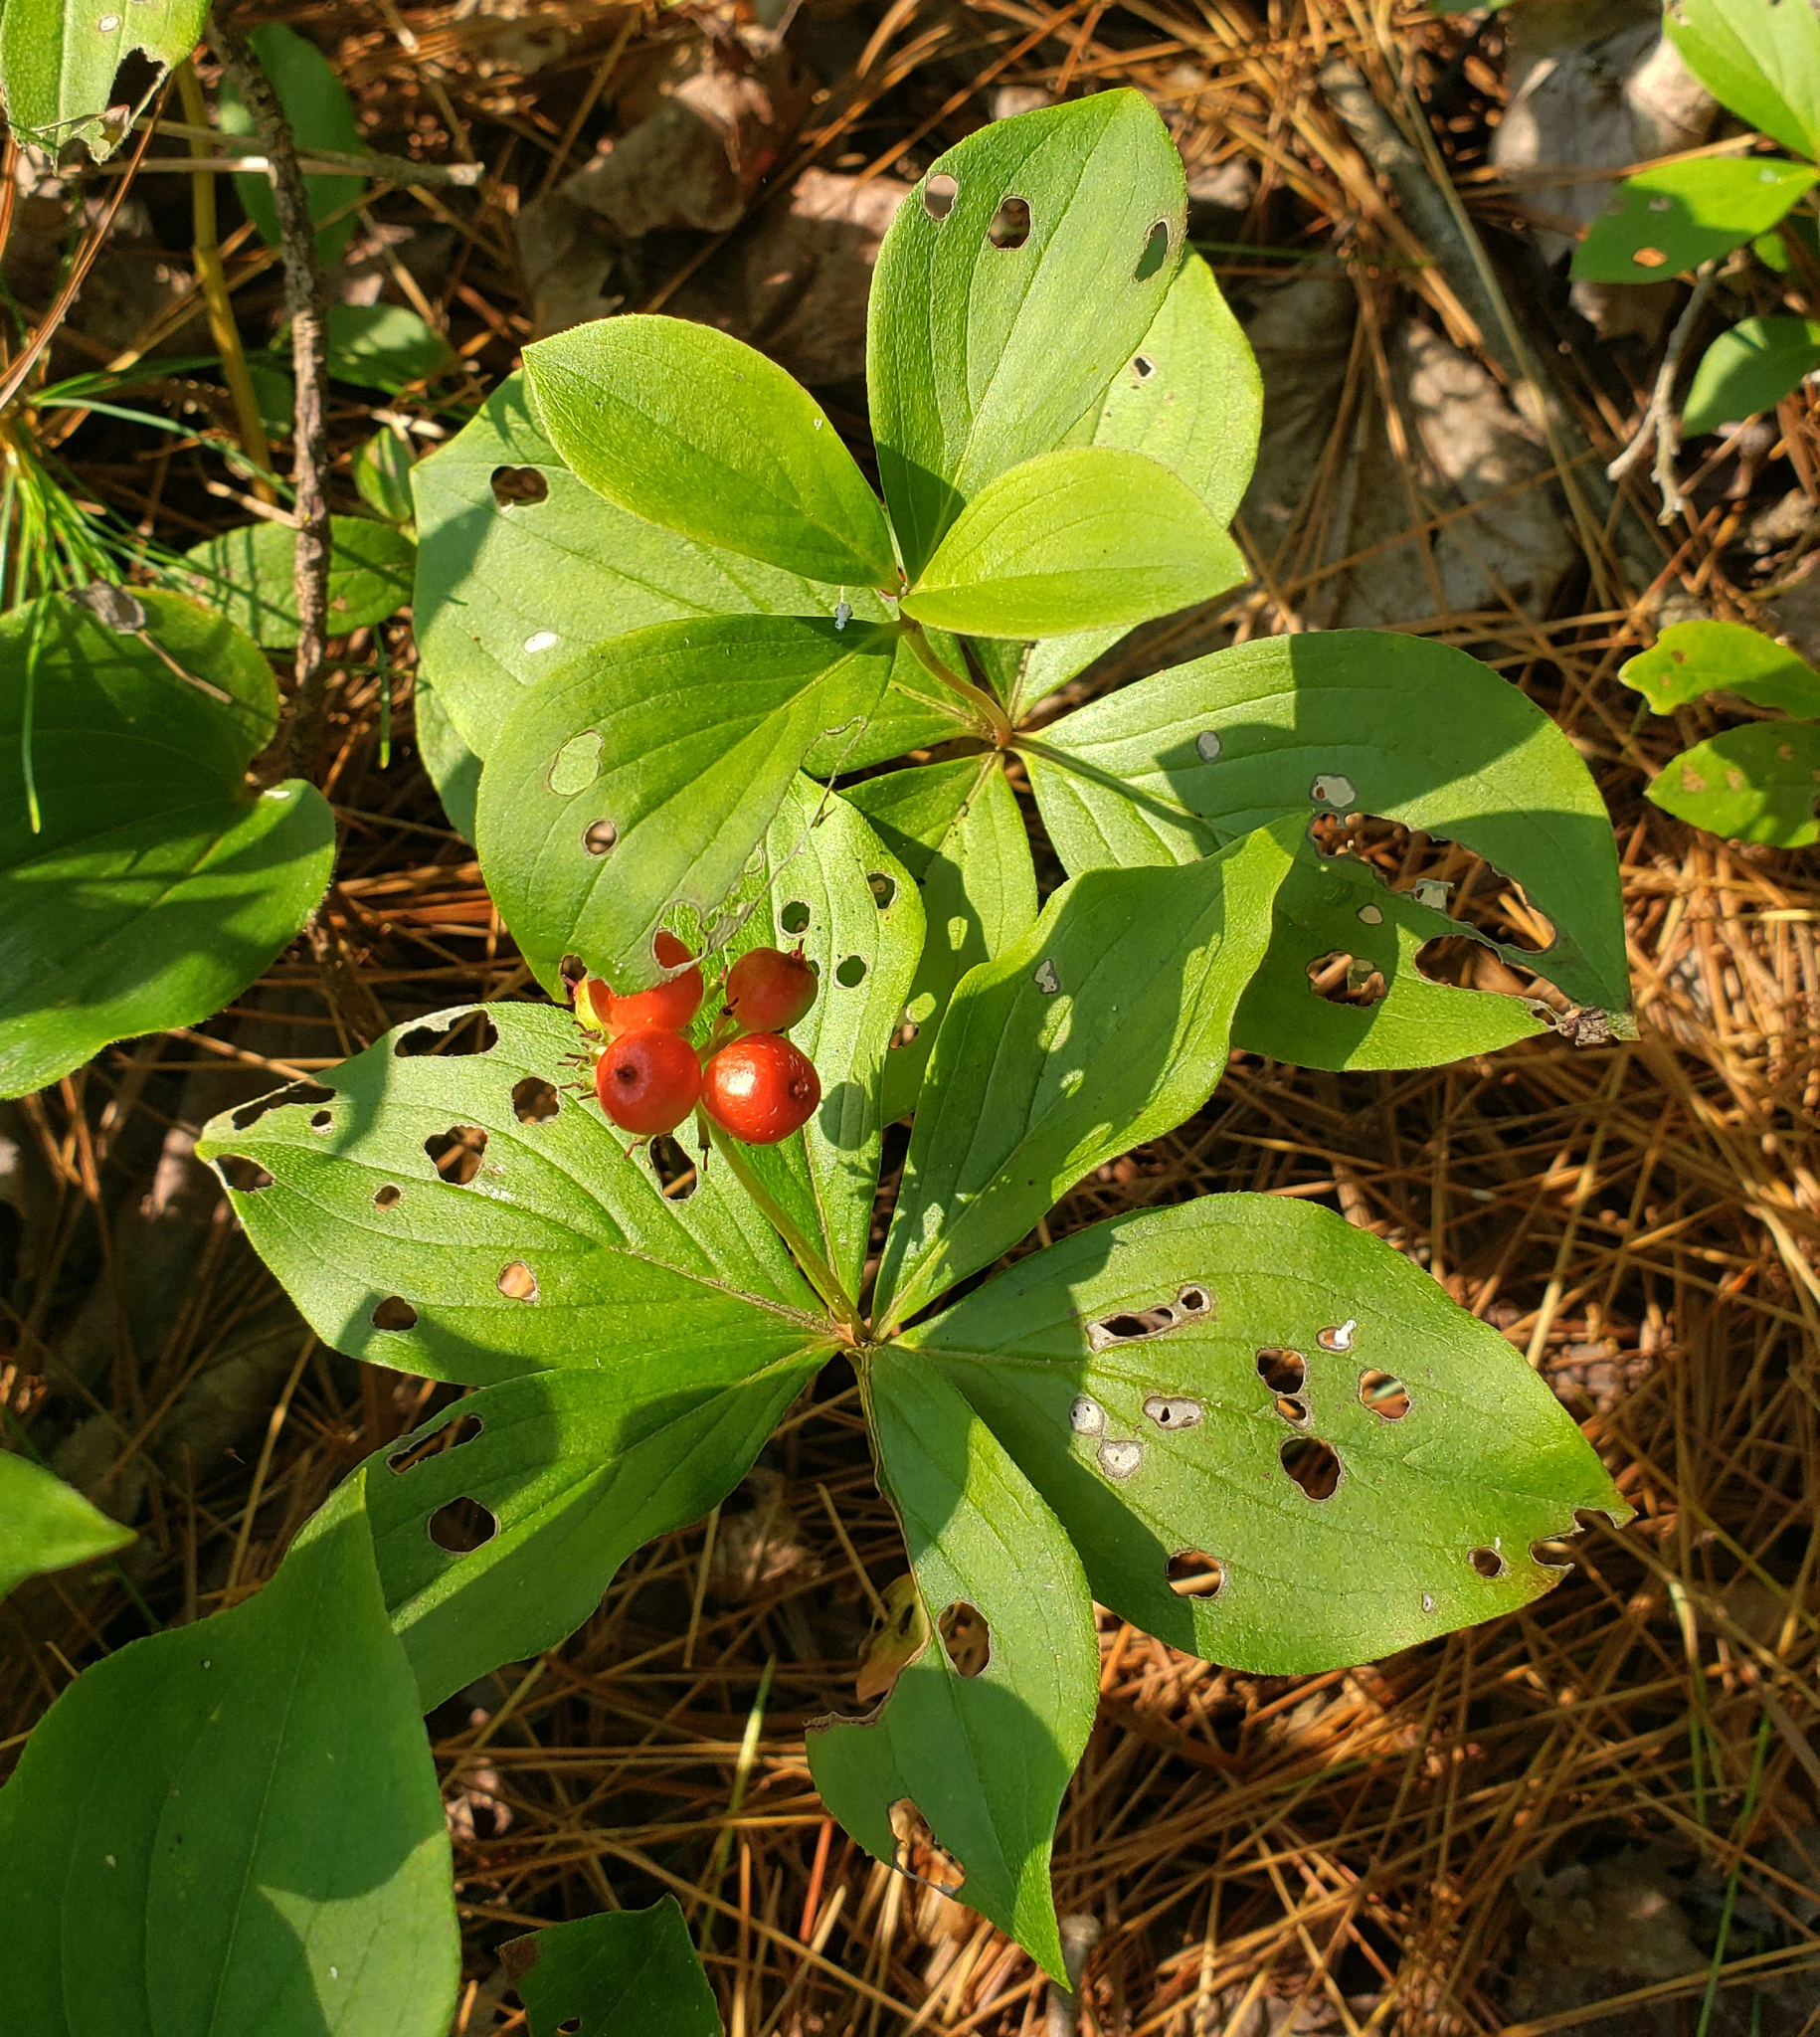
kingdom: Plantae
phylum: Tracheophyta
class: Magnoliopsida
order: Cornales
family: Cornaceae
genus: Cornus
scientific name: Cornus canadensis
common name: Creeping dogwood
